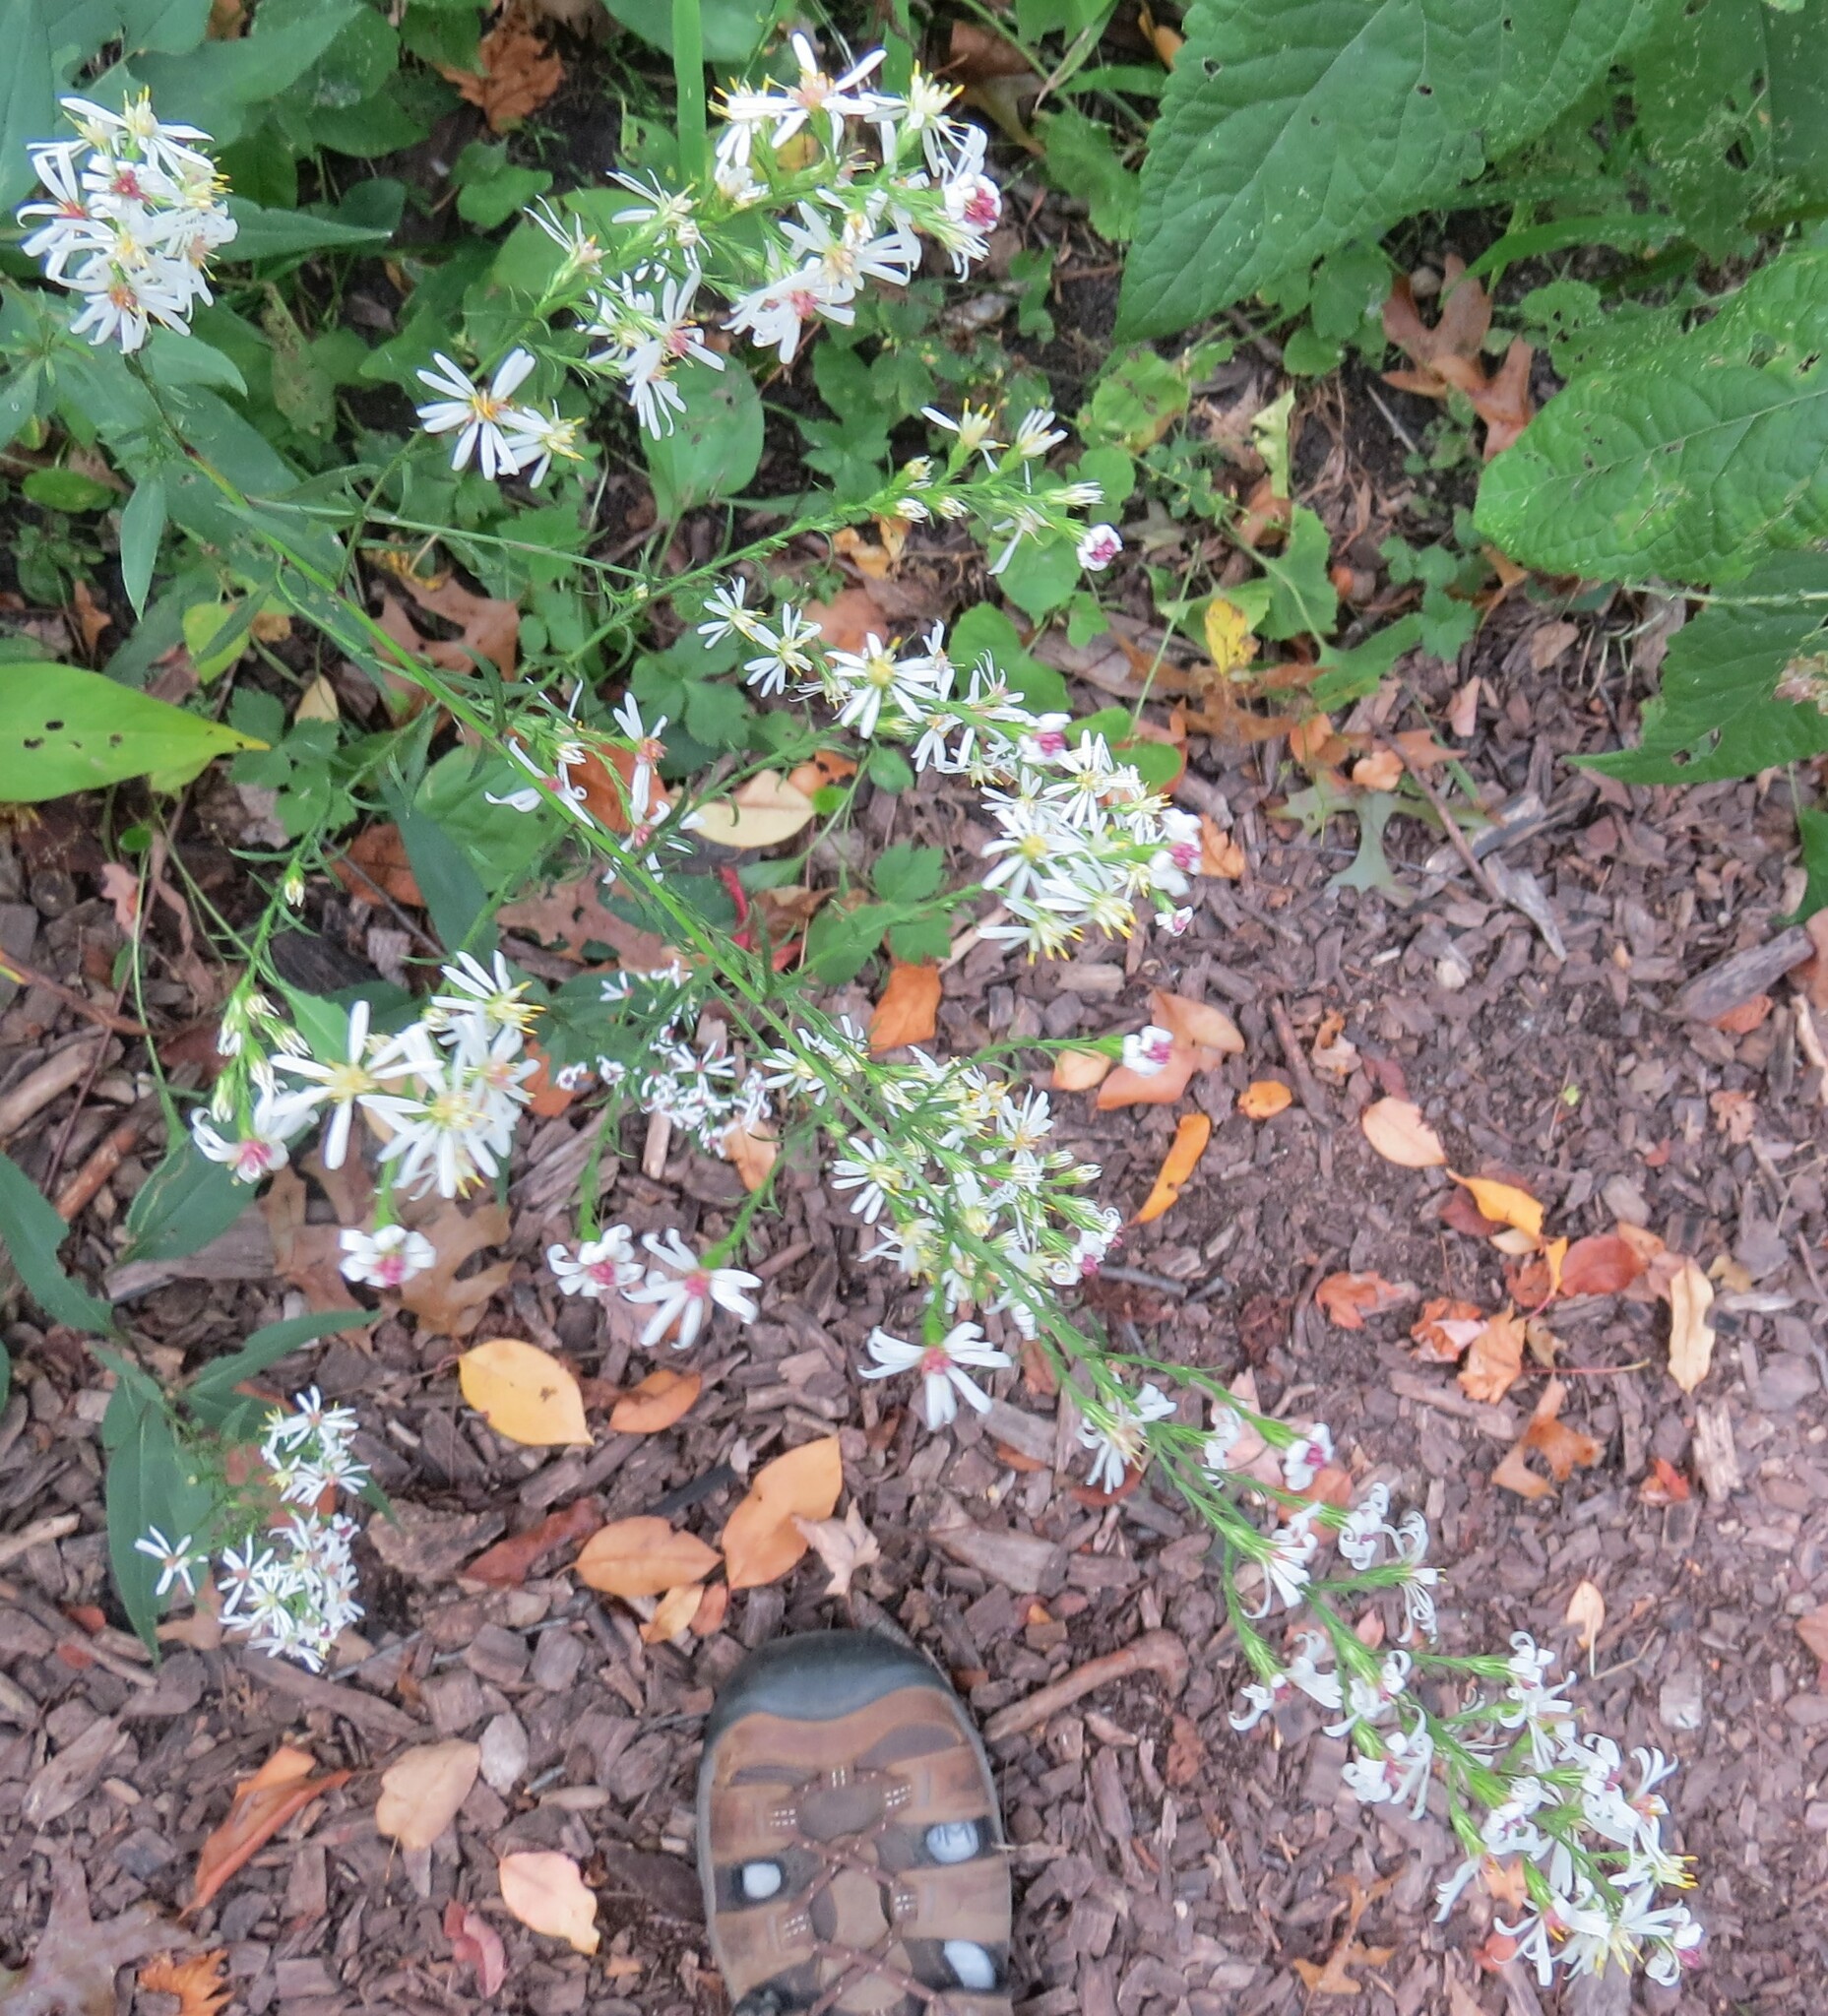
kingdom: Plantae
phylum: Tracheophyta
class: Magnoliopsida
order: Asterales
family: Asteraceae
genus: Symphyotrichum
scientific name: Symphyotrichum urophyllum
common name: Arrow-leaved aster
